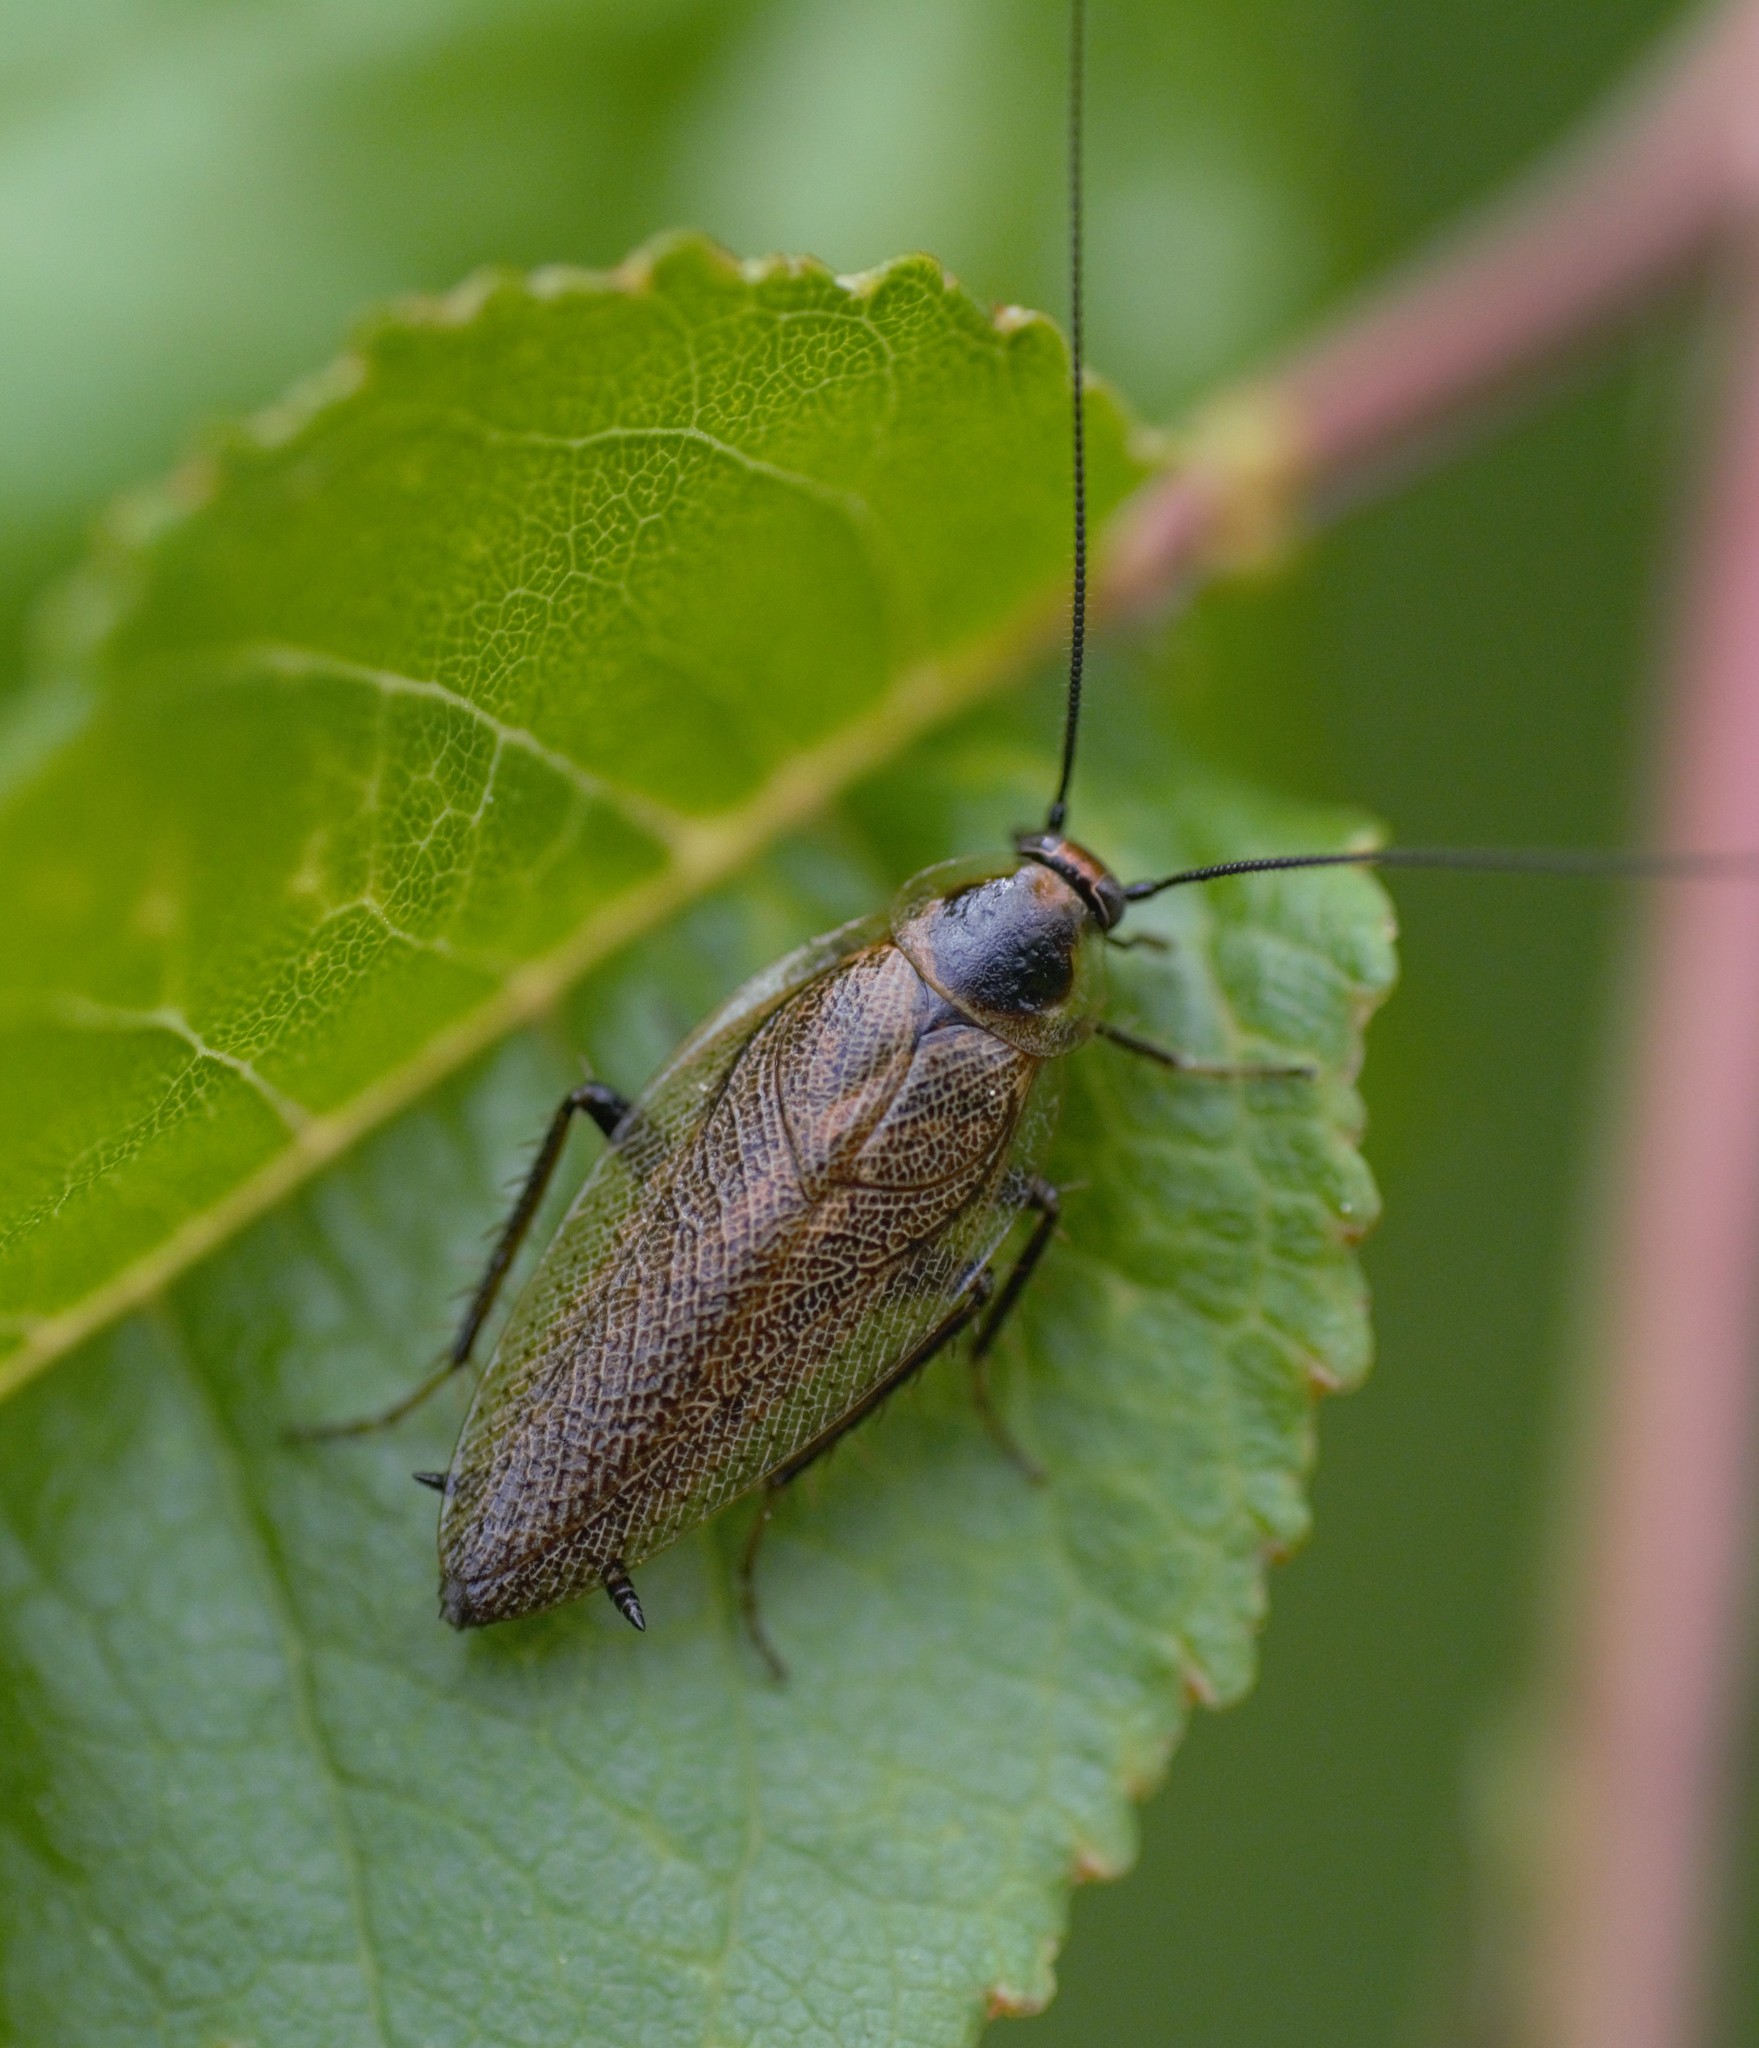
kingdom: Animalia
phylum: Arthropoda
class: Insecta
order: Blattodea
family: Ectobiidae
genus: Ectobius
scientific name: Ectobius lapponicus
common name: Dusky cockroach
